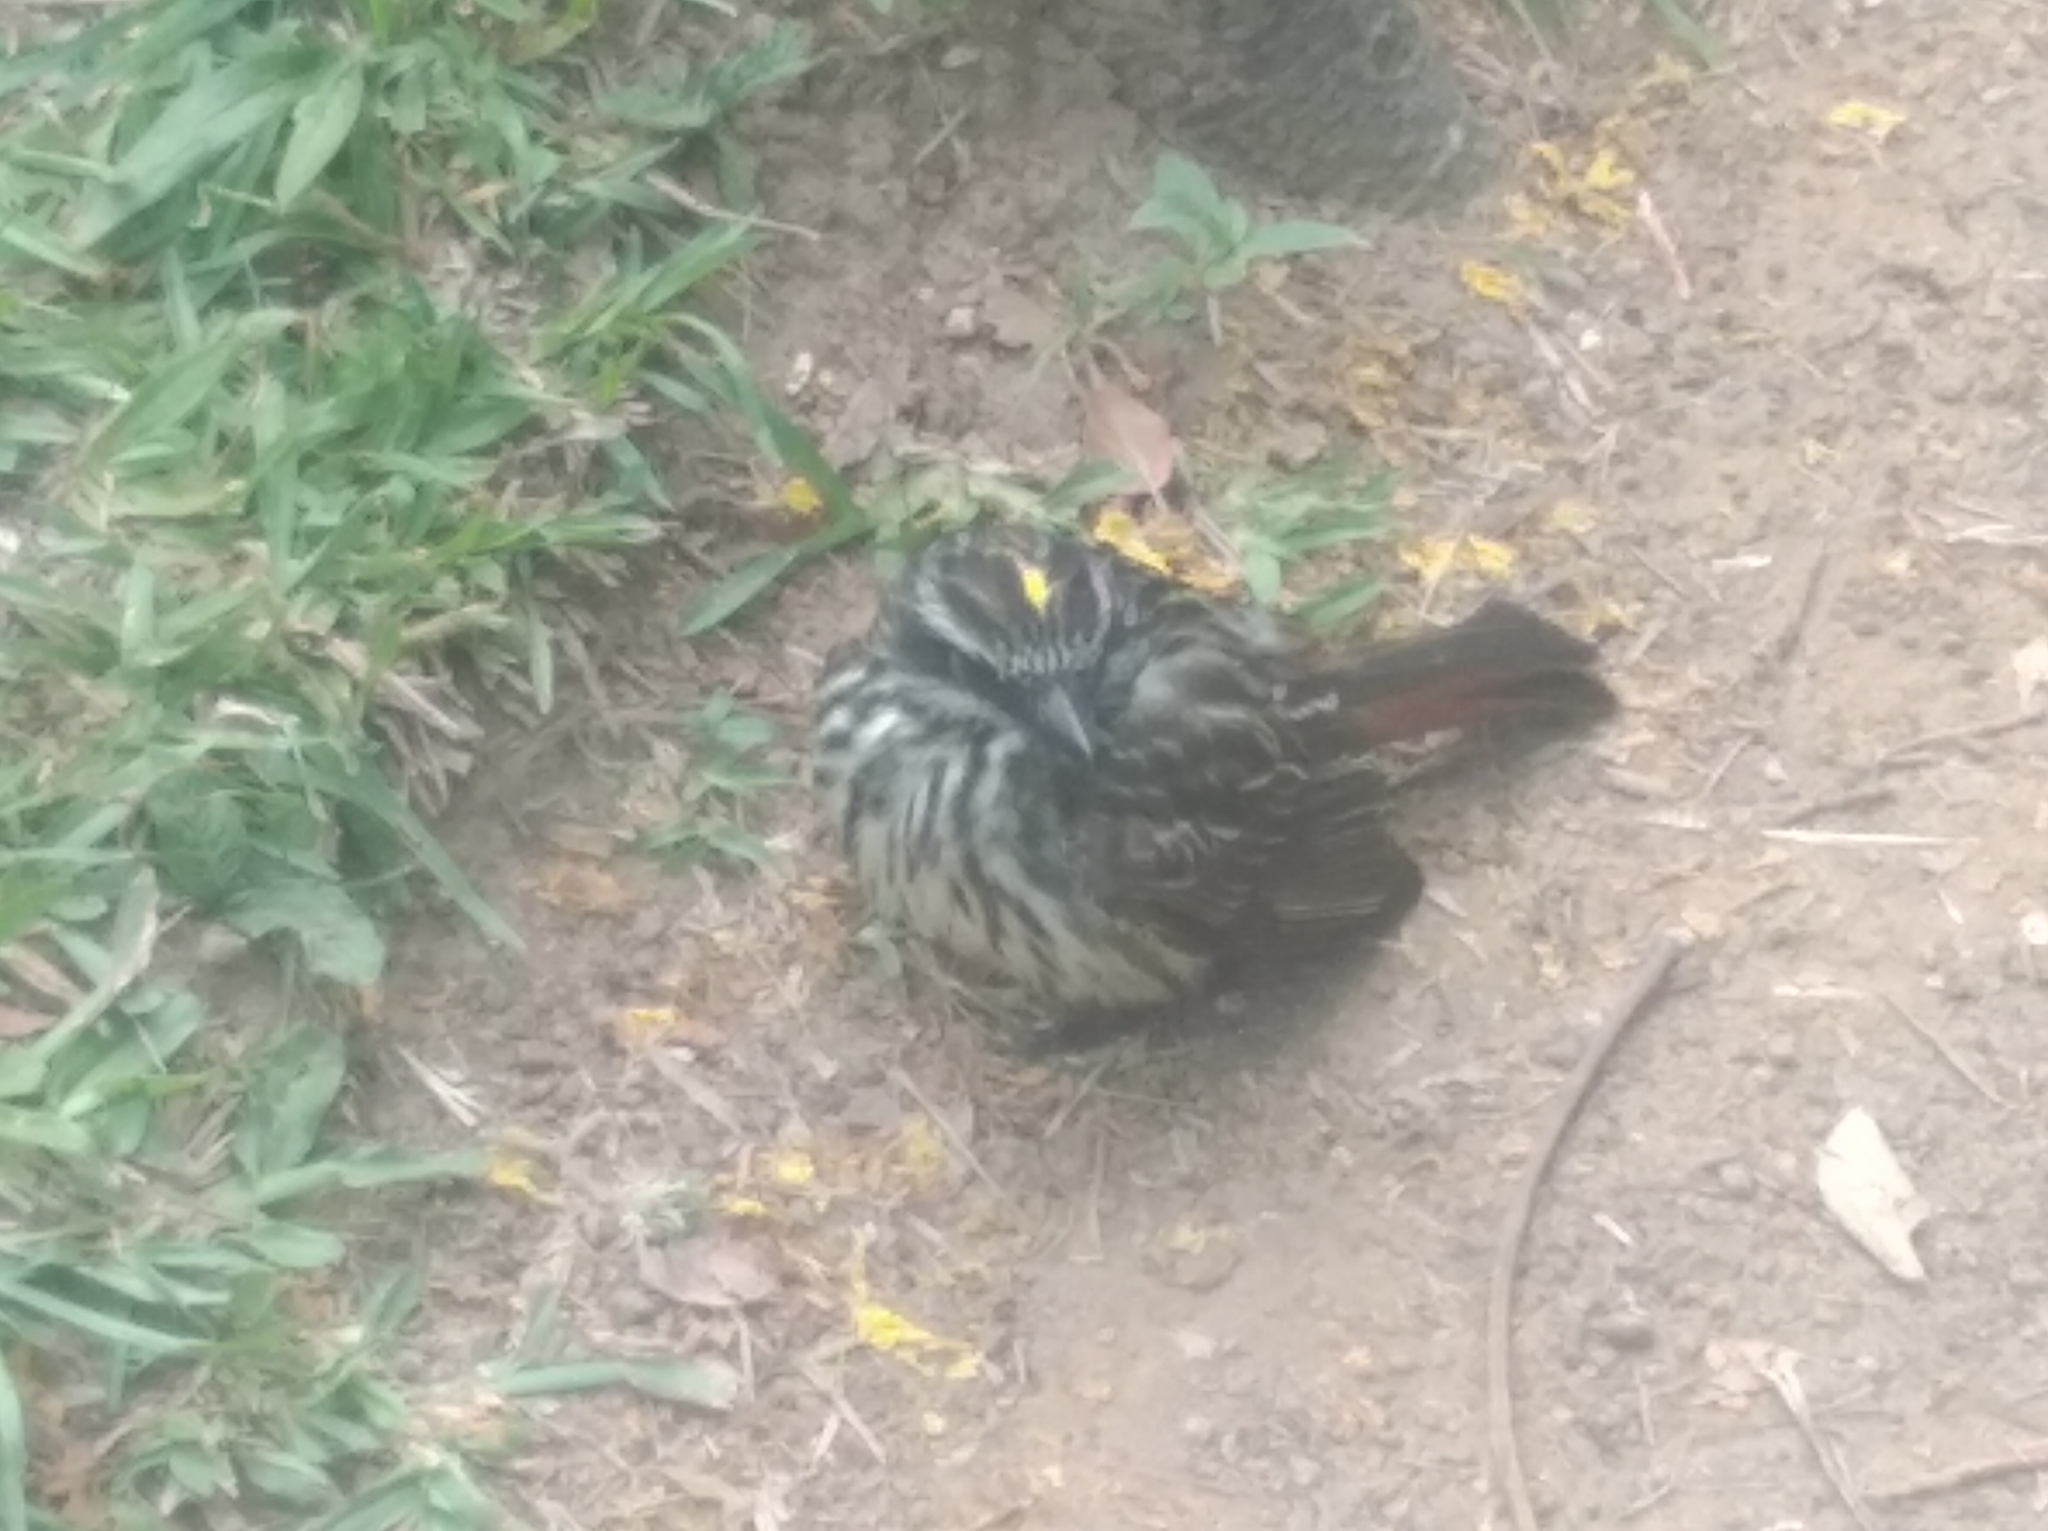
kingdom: Animalia
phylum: Chordata
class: Aves
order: Passeriformes
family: Tyrannidae
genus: Myiodynastes
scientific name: Myiodynastes maculatus
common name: Streaked flycatcher
